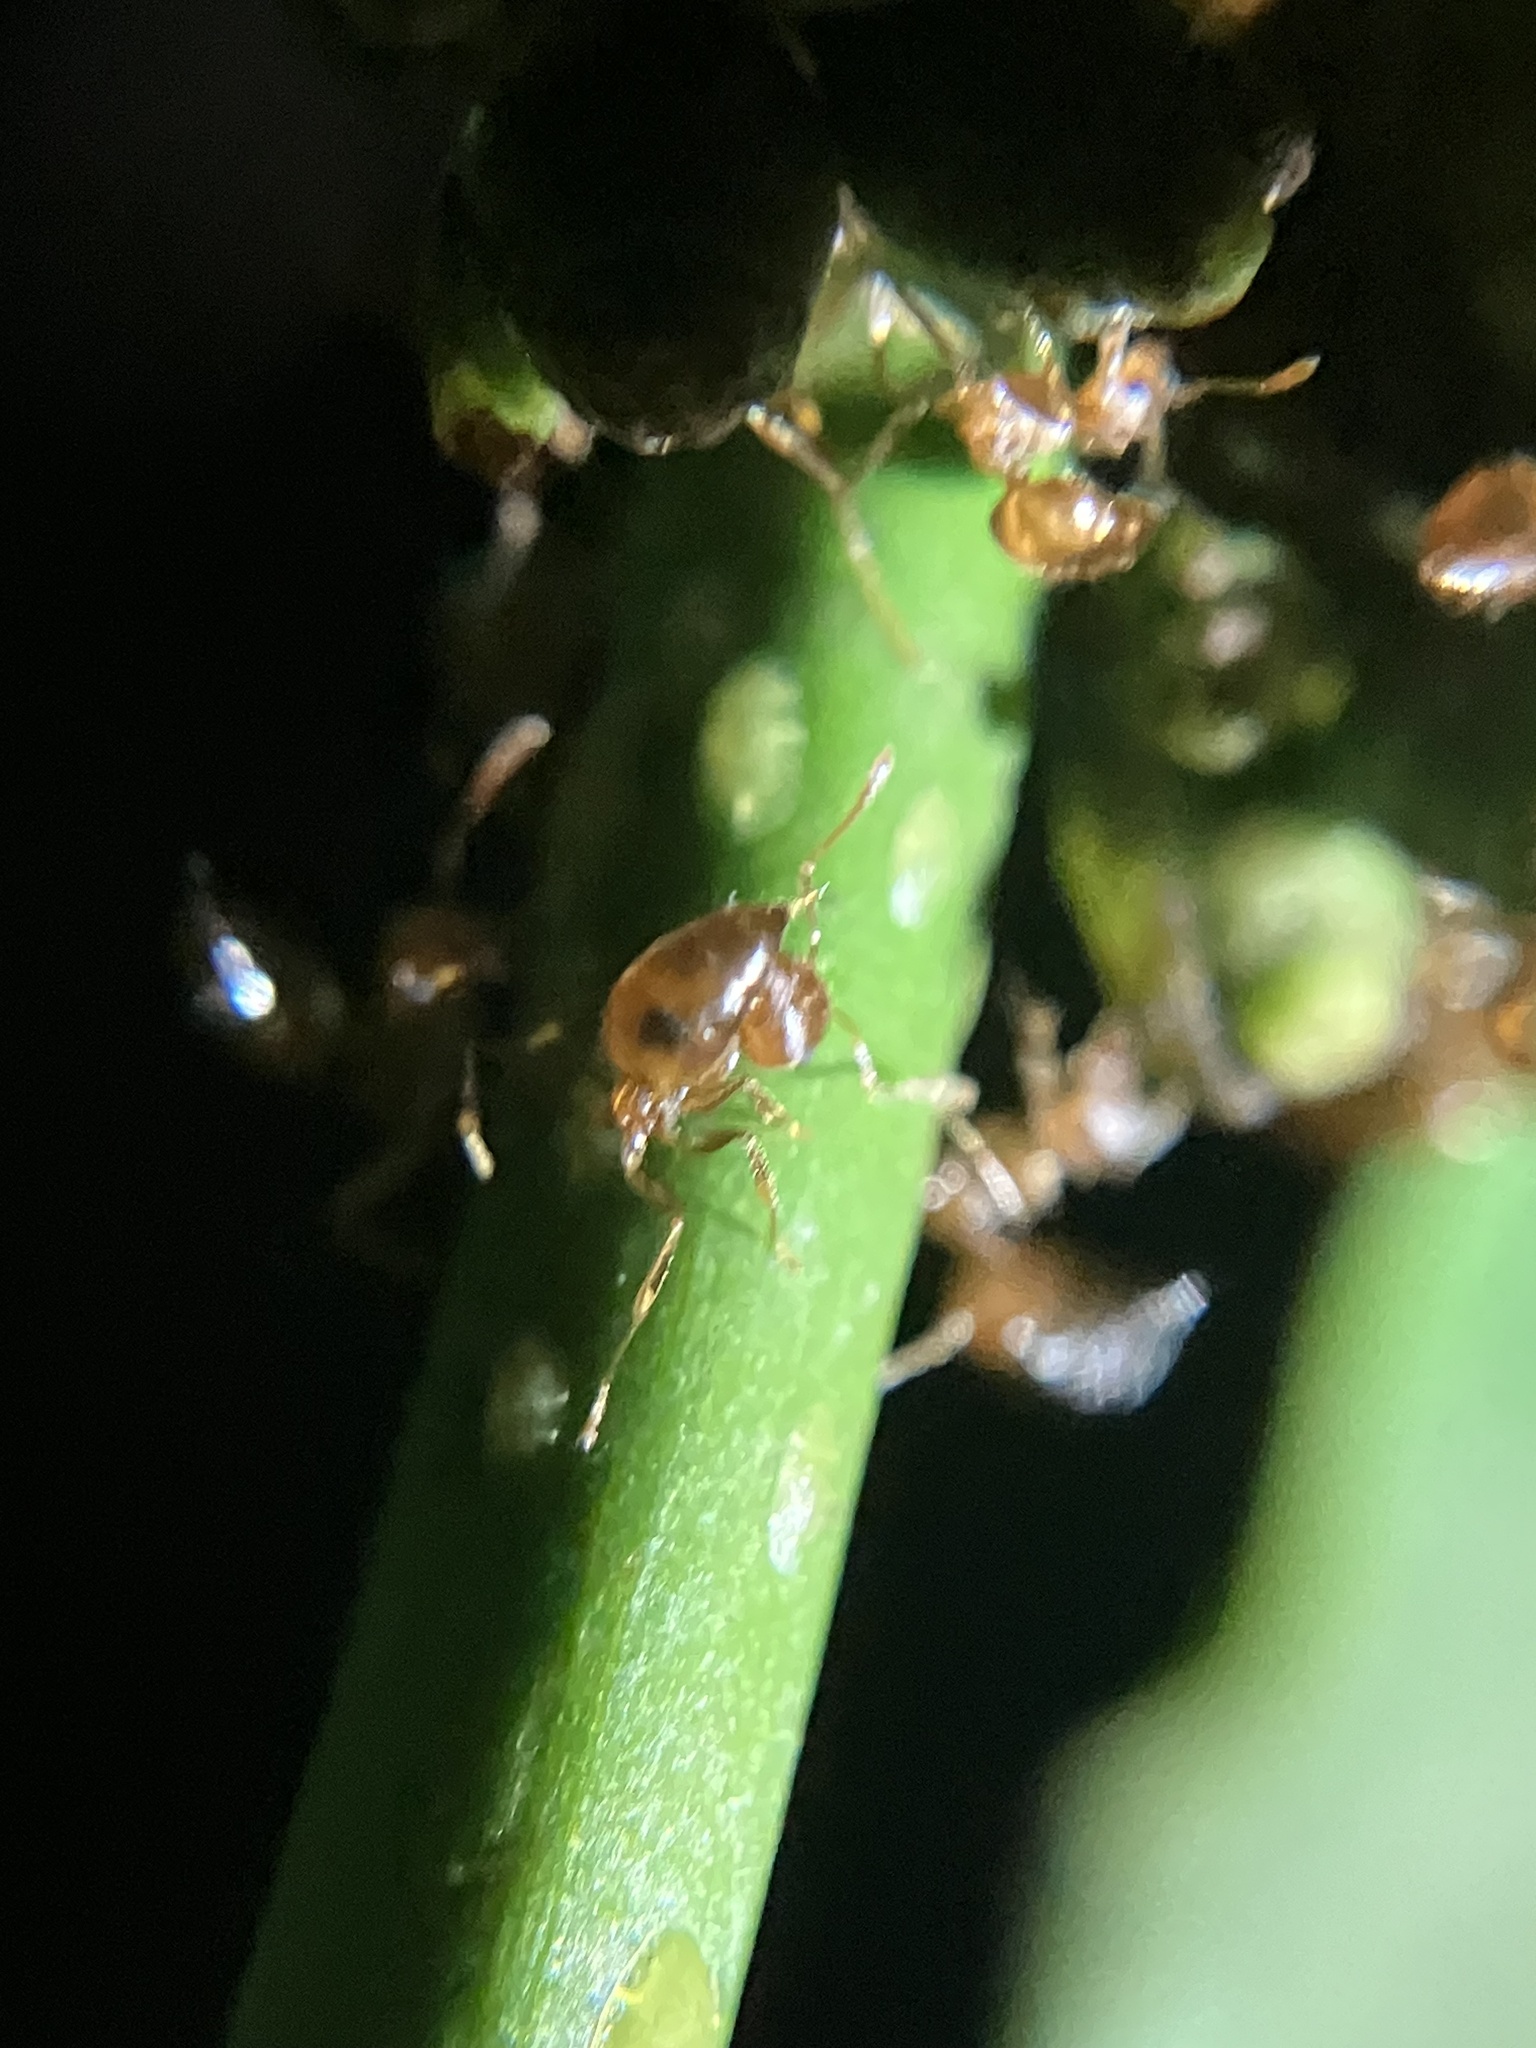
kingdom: Animalia
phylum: Arthropoda
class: Insecta
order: Hymenoptera
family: Formicidae
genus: Crematogaster
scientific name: Crematogaster politula
